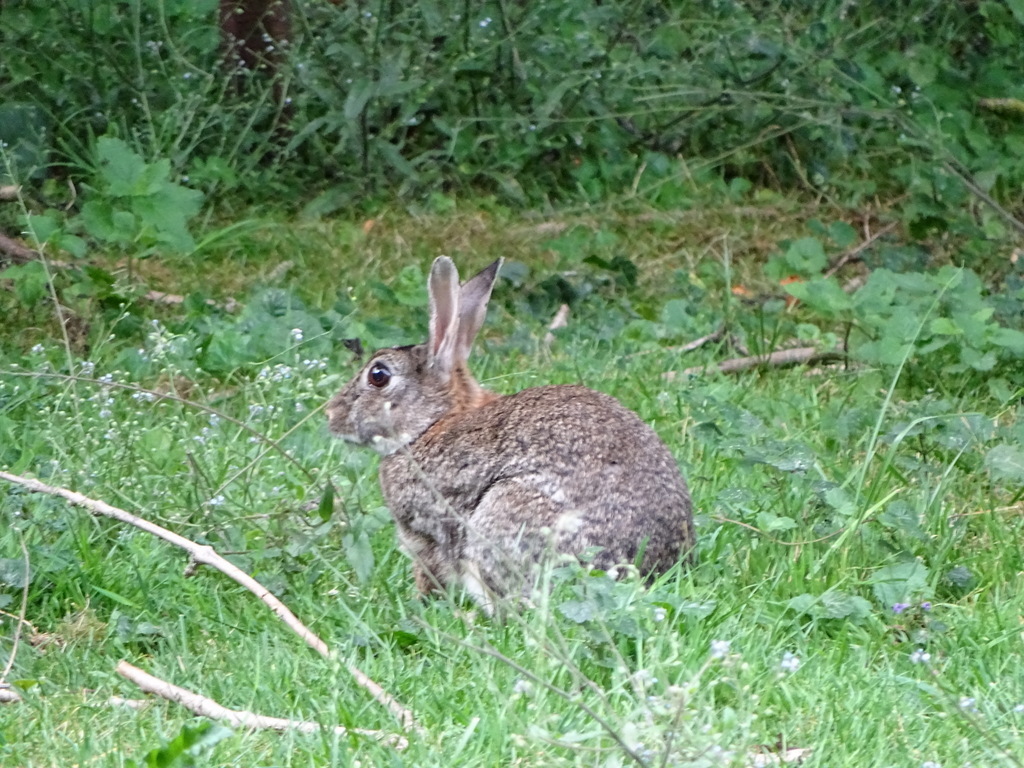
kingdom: Animalia
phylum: Chordata
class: Mammalia
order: Lagomorpha
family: Leporidae
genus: Oryctolagus
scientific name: Oryctolagus cuniculus
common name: European rabbit
